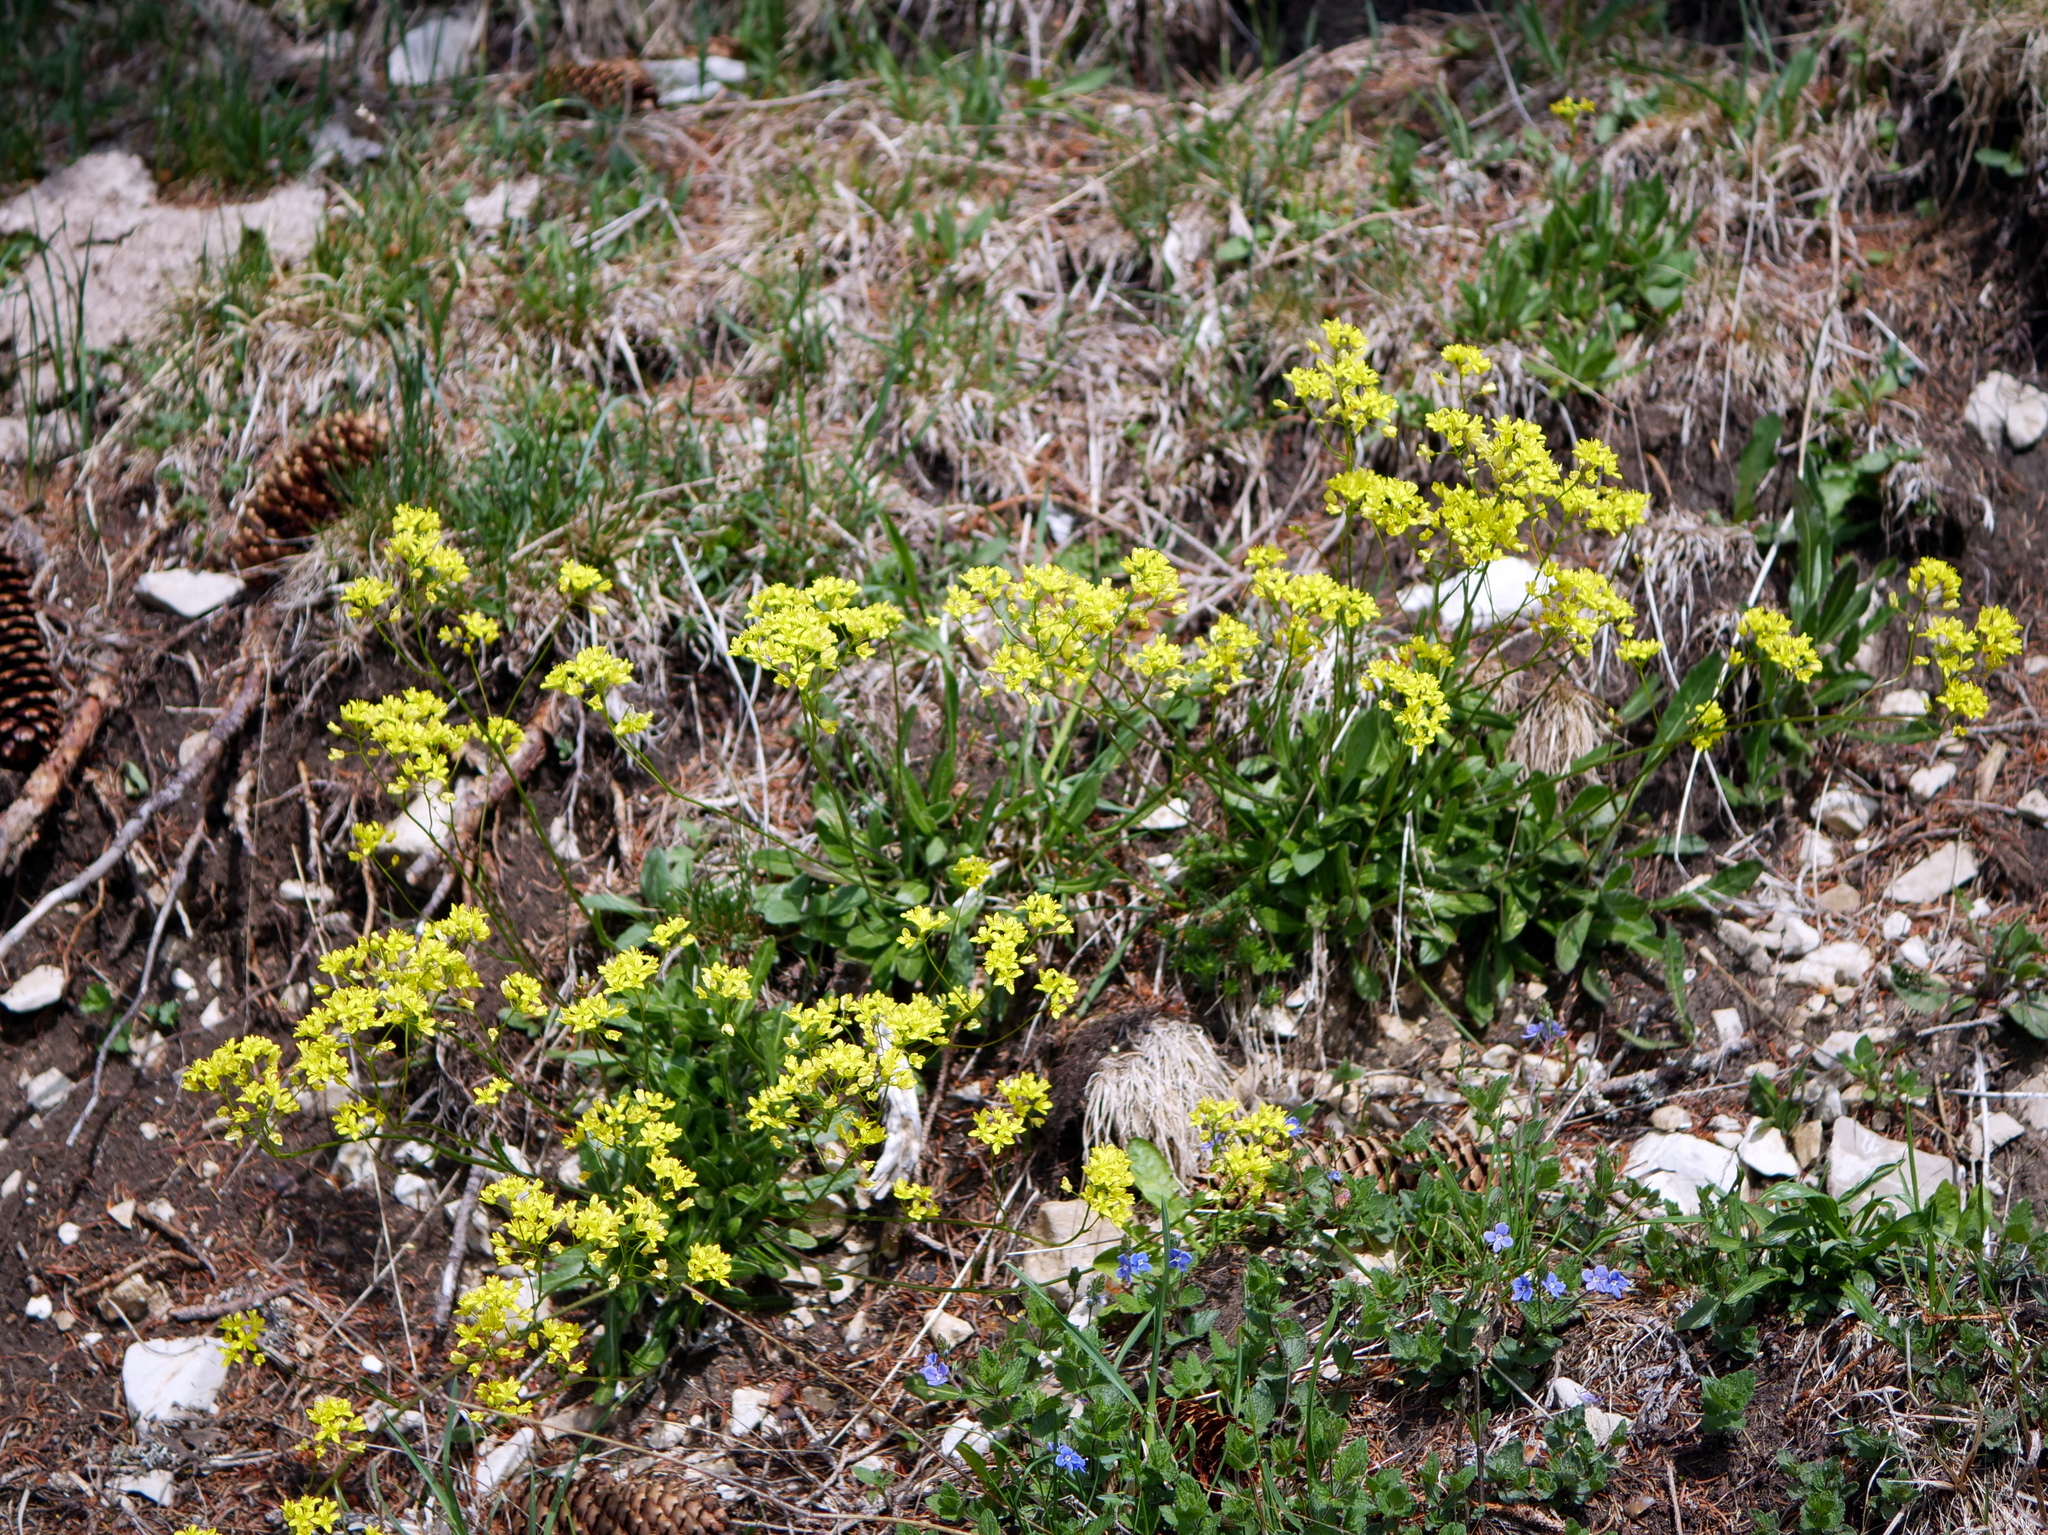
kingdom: Plantae
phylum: Tracheophyta
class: Magnoliopsida
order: Brassicales
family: Brassicaceae
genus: Biscutella
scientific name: Biscutella laevigata
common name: Buckler mustard
